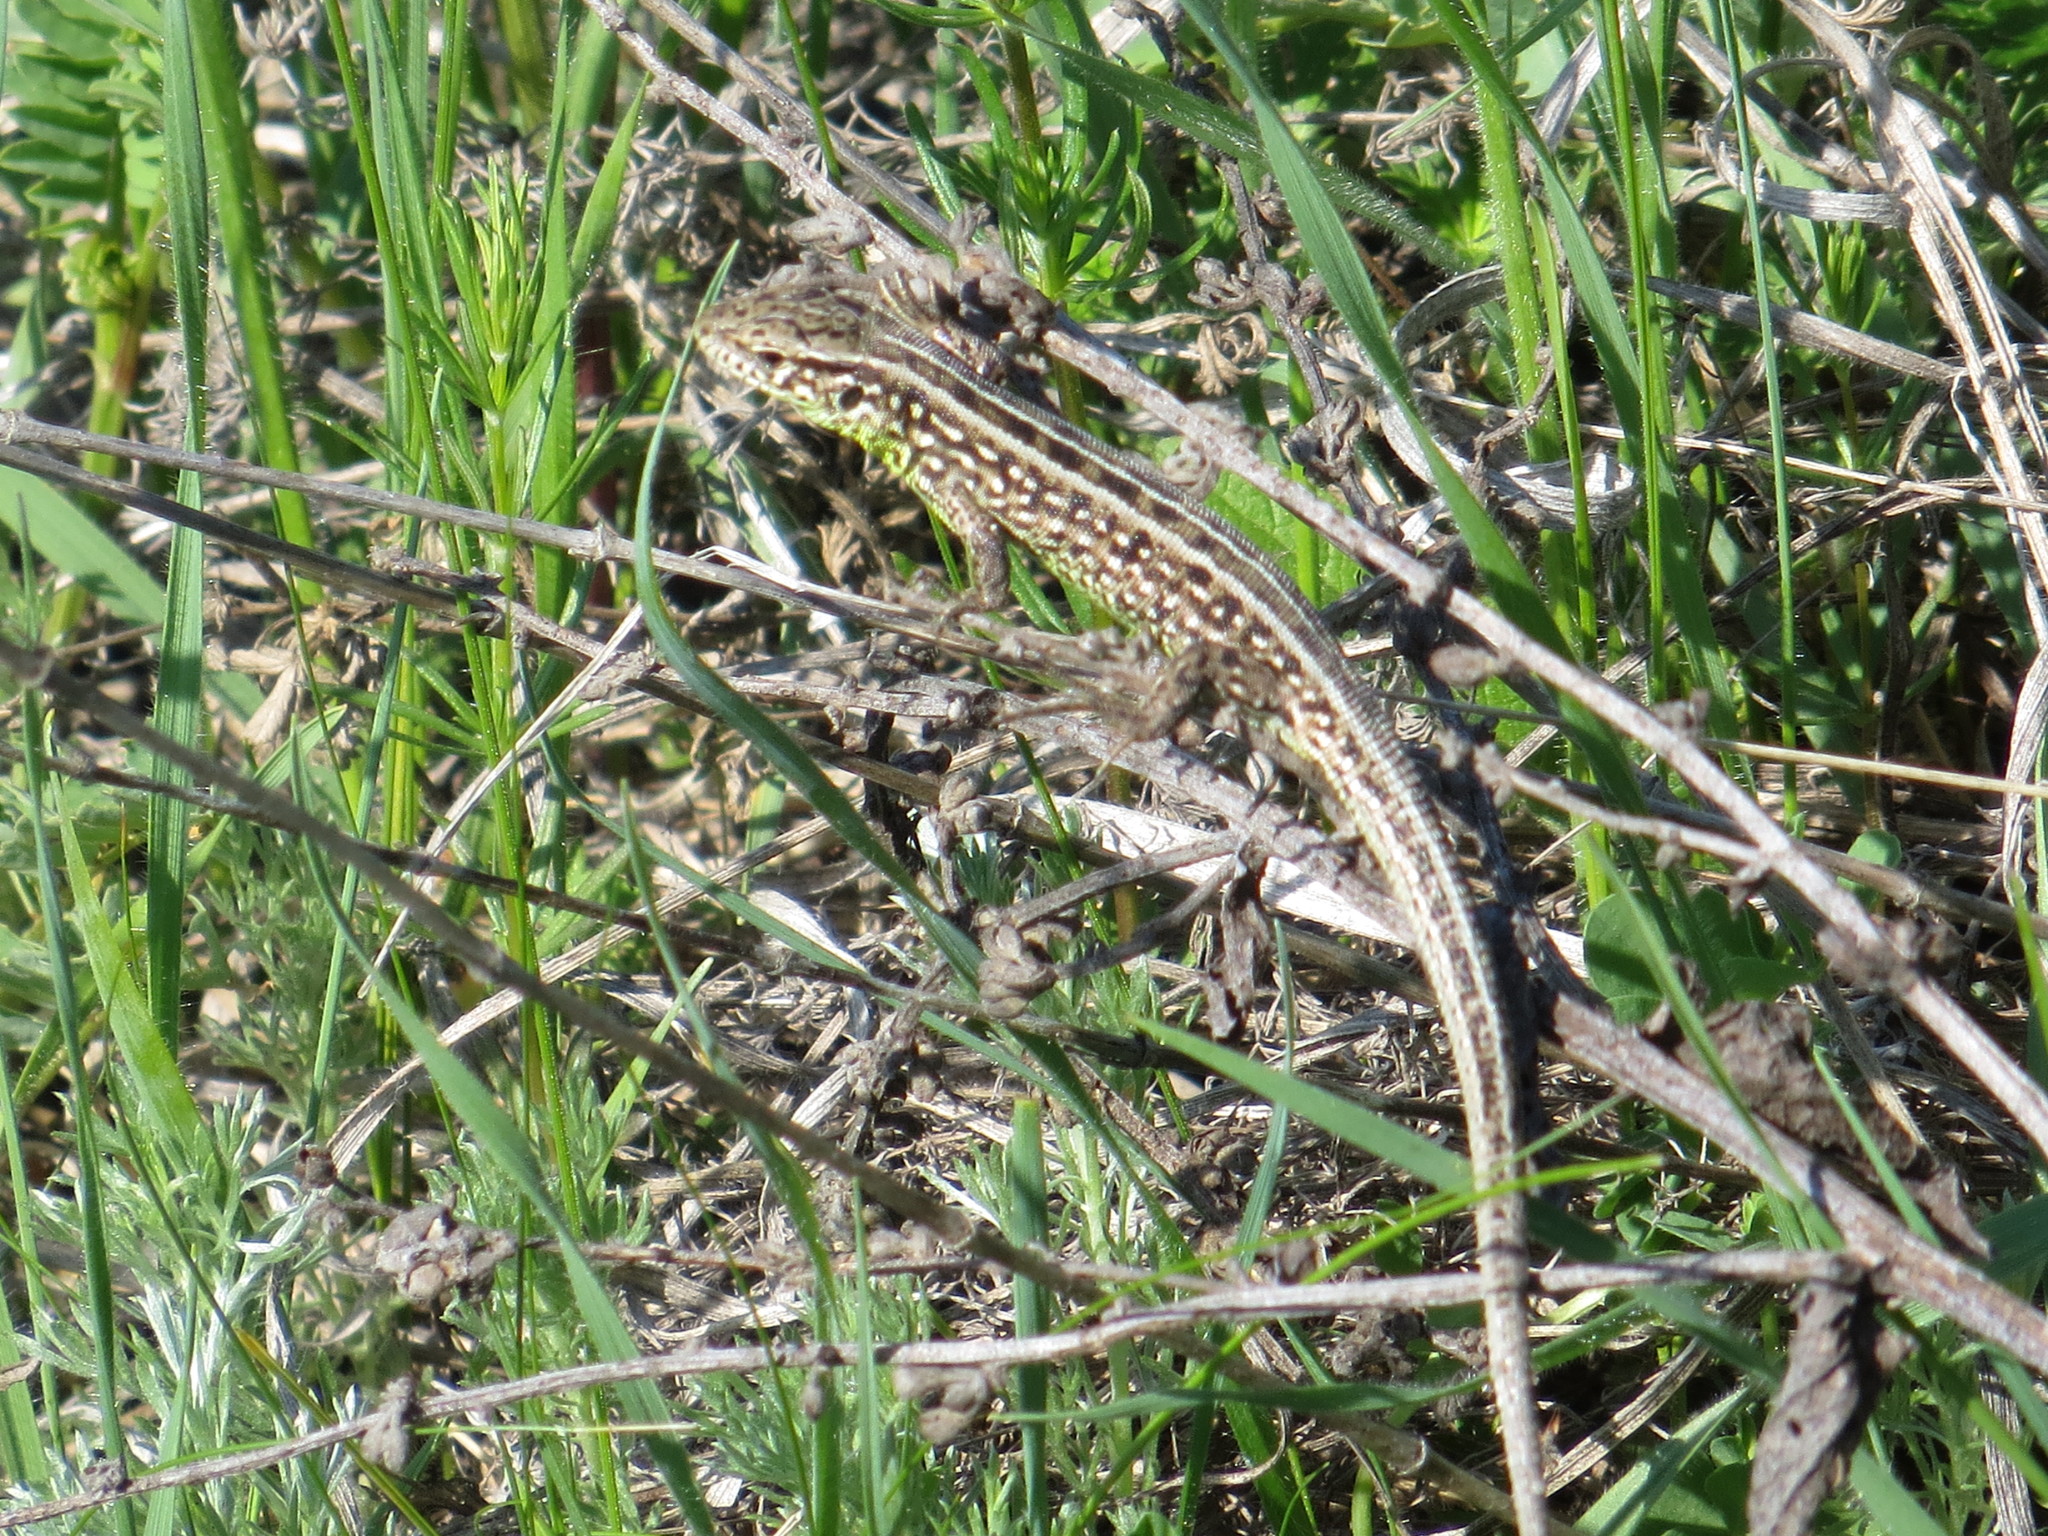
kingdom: Animalia
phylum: Chordata
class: Squamata
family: Lacertidae
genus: Lacerta
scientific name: Lacerta agilis
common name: Sand lizard
